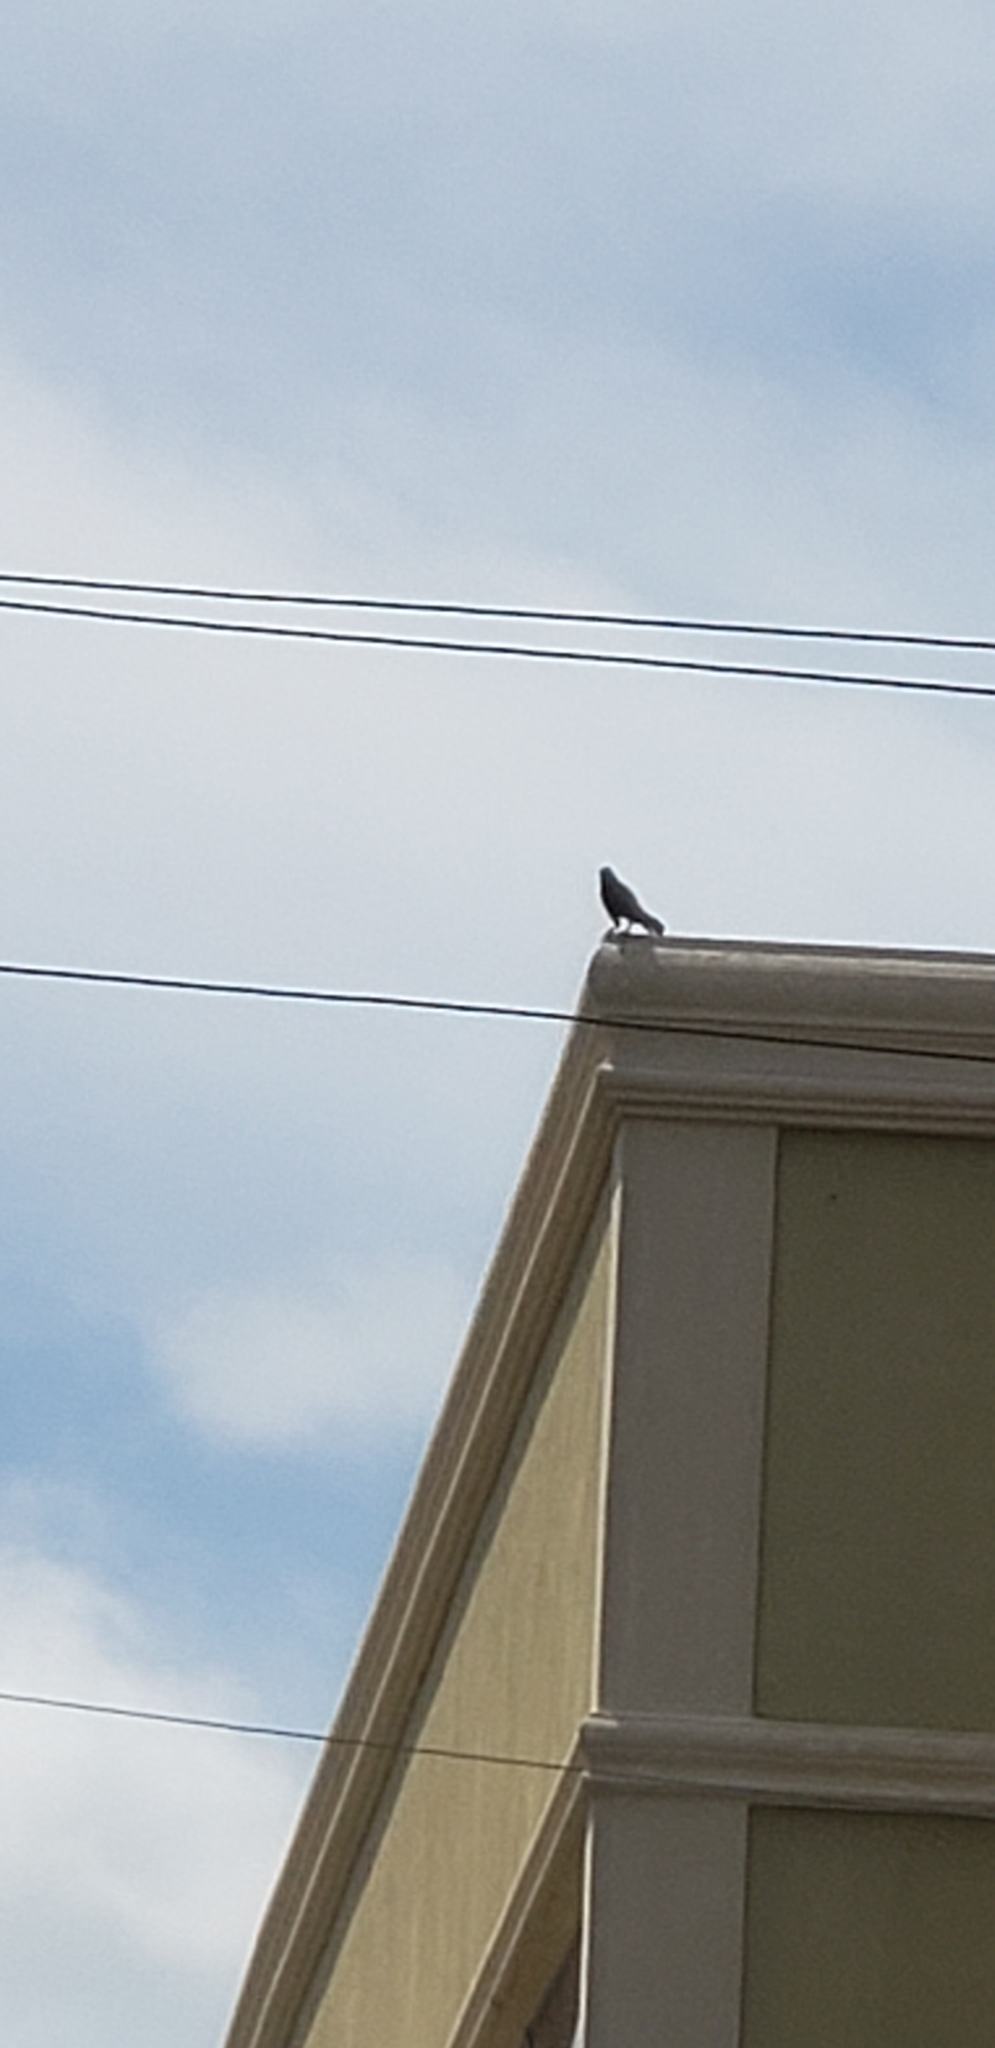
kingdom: Animalia
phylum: Chordata
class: Aves
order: Passeriformes
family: Icteridae
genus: Quiscalus
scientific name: Quiscalus major
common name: Boat-tailed grackle
